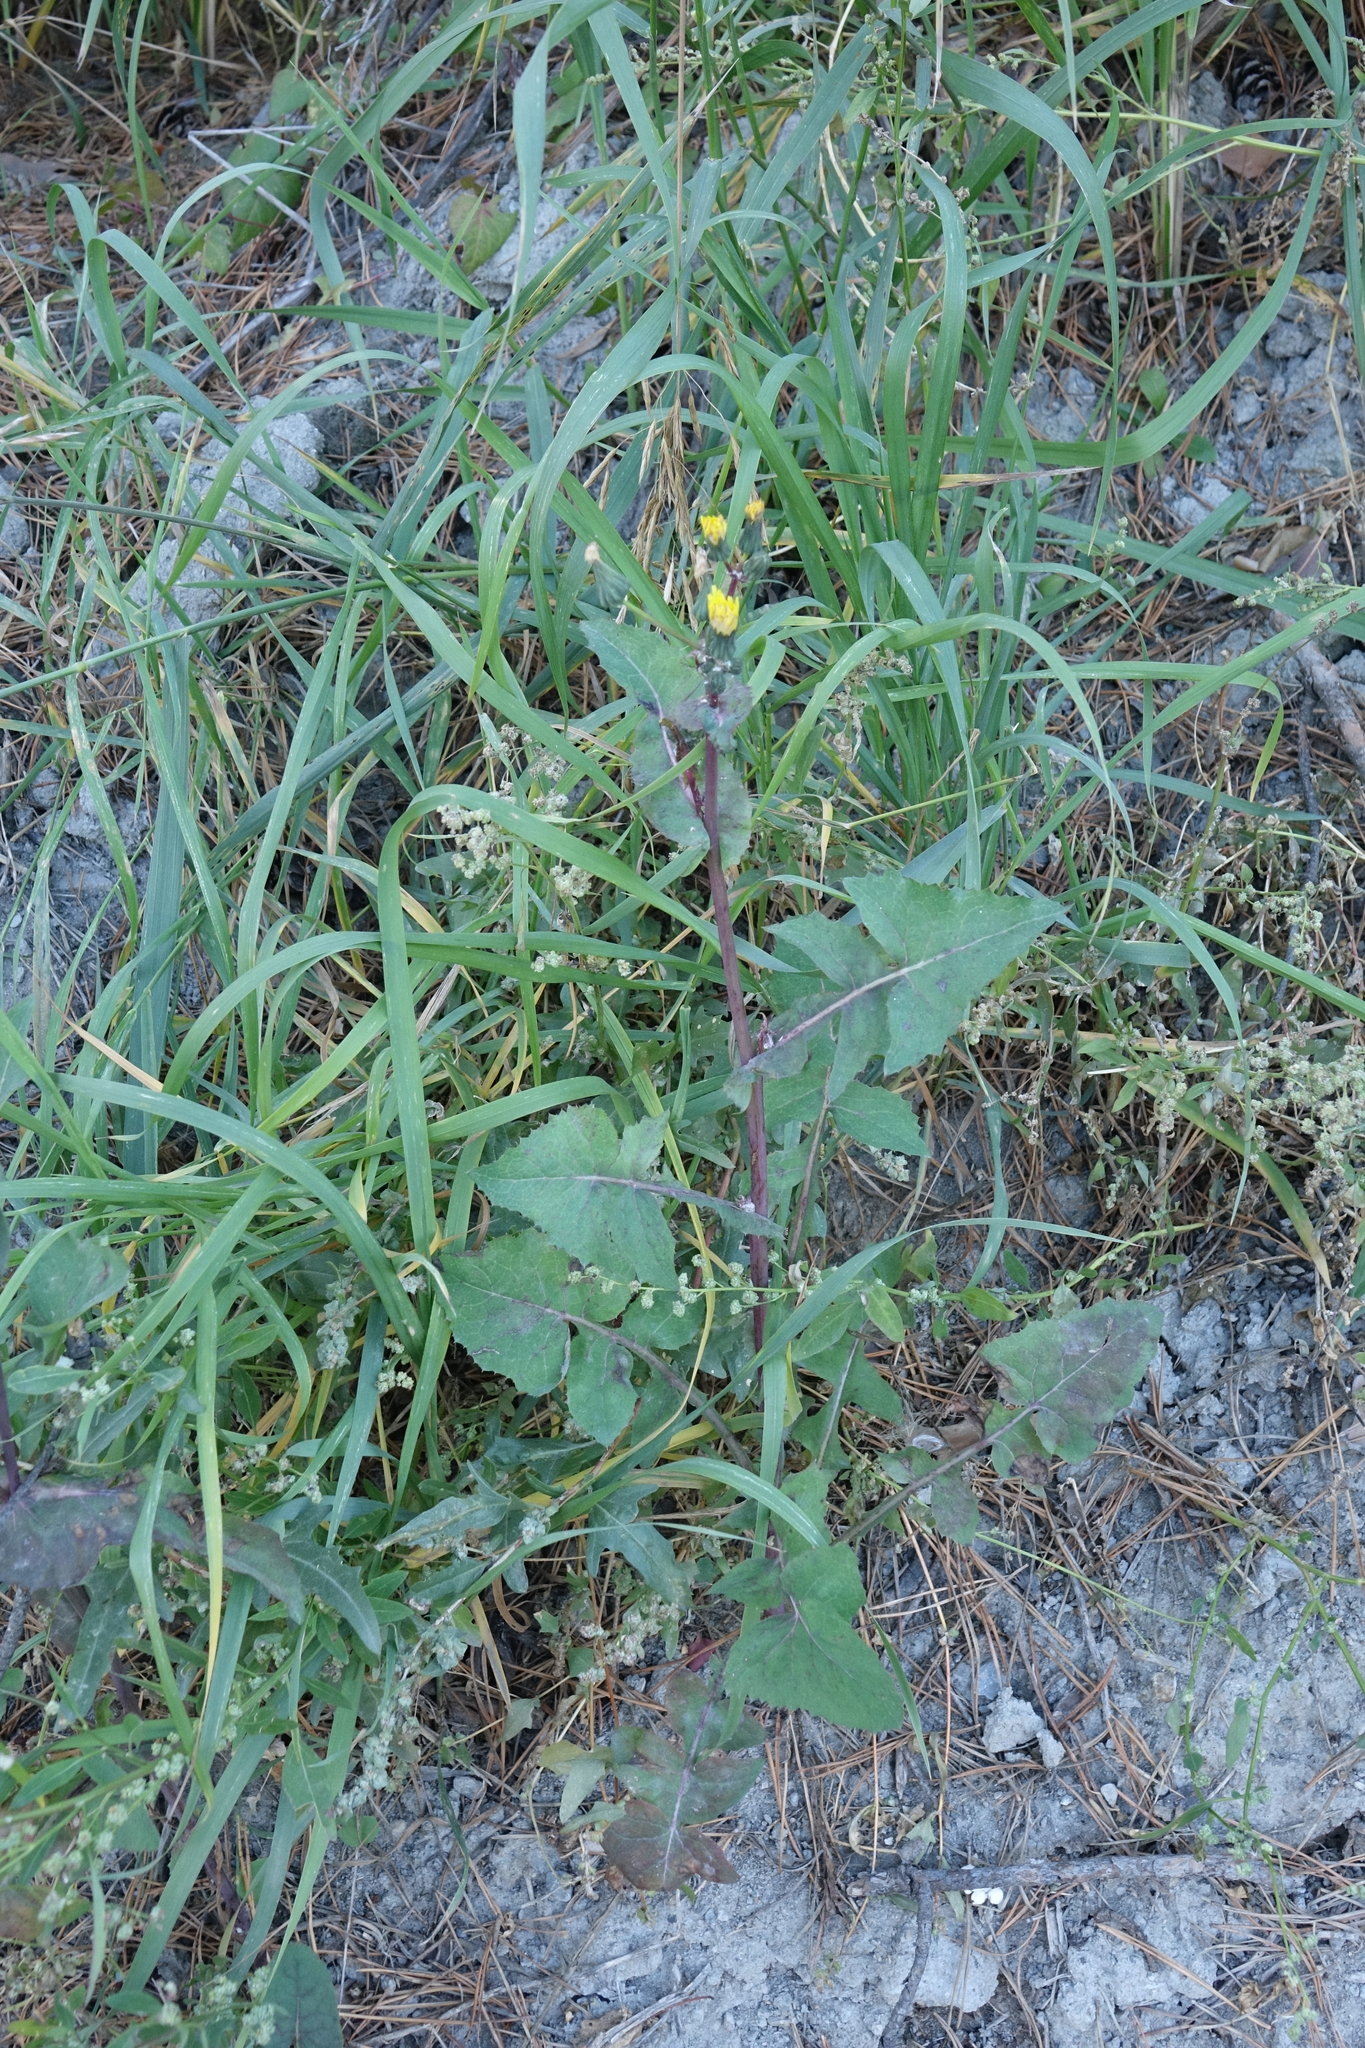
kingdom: Plantae
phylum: Tracheophyta
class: Magnoliopsida
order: Asterales
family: Asteraceae
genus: Sonchus
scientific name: Sonchus oleraceus
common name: Common sowthistle
